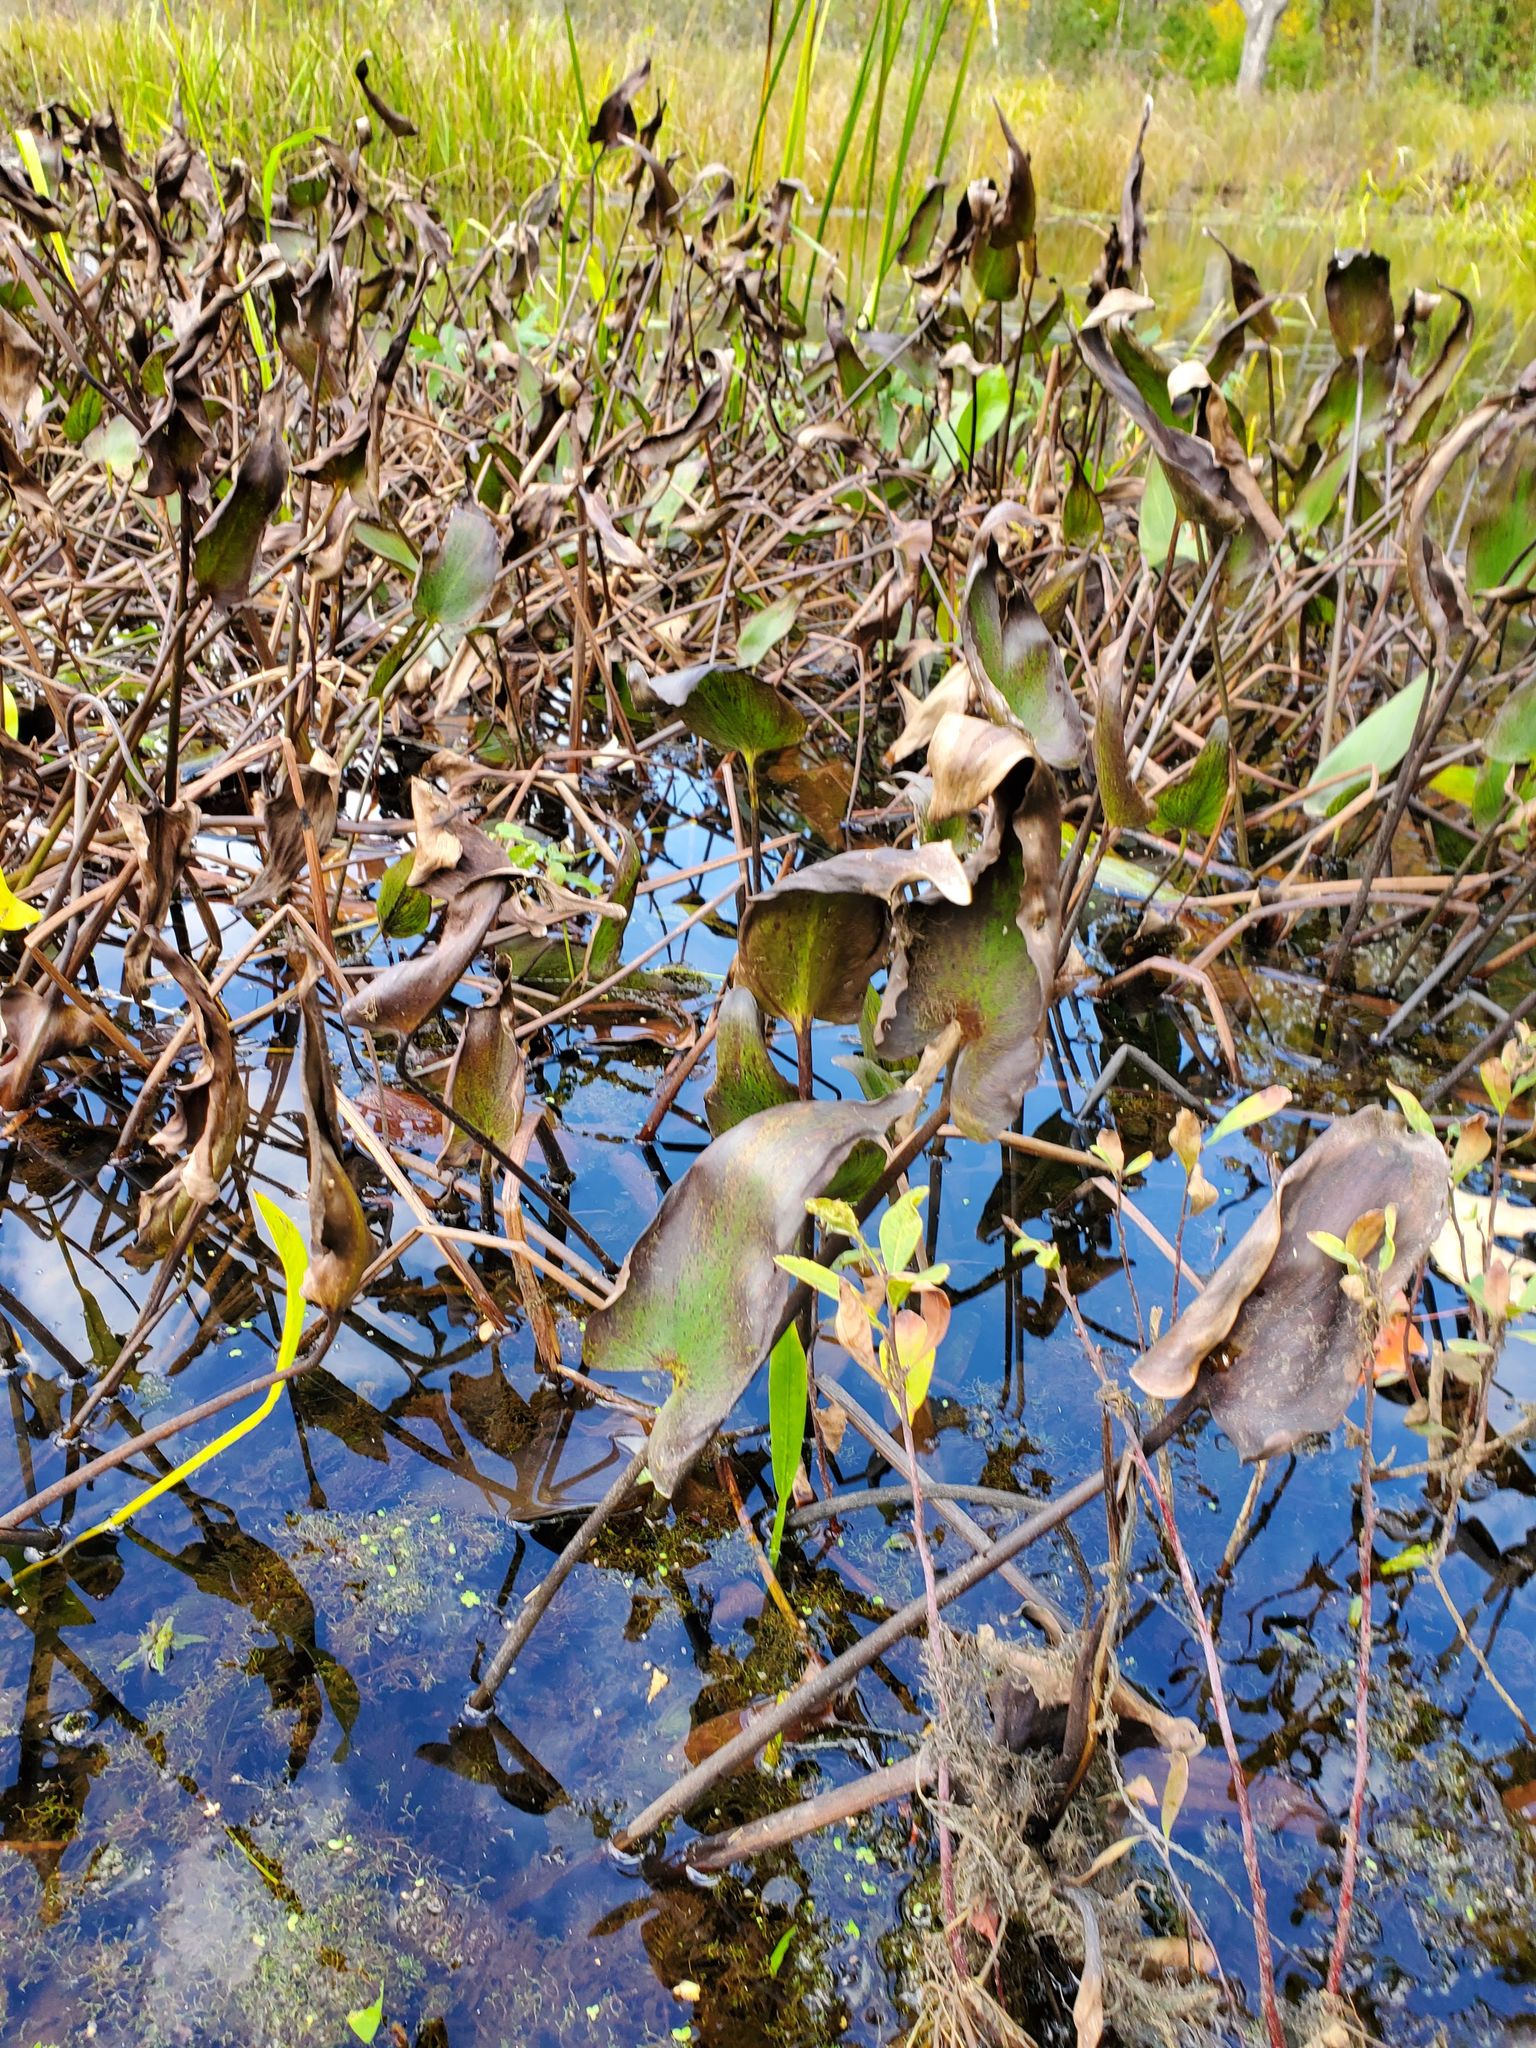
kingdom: Plantae
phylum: Tracheophyta
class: Liliopsida
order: Commelinales
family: Pontederiaceae
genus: Pontederia
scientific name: Pontederia cordata
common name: Pickerelweed
